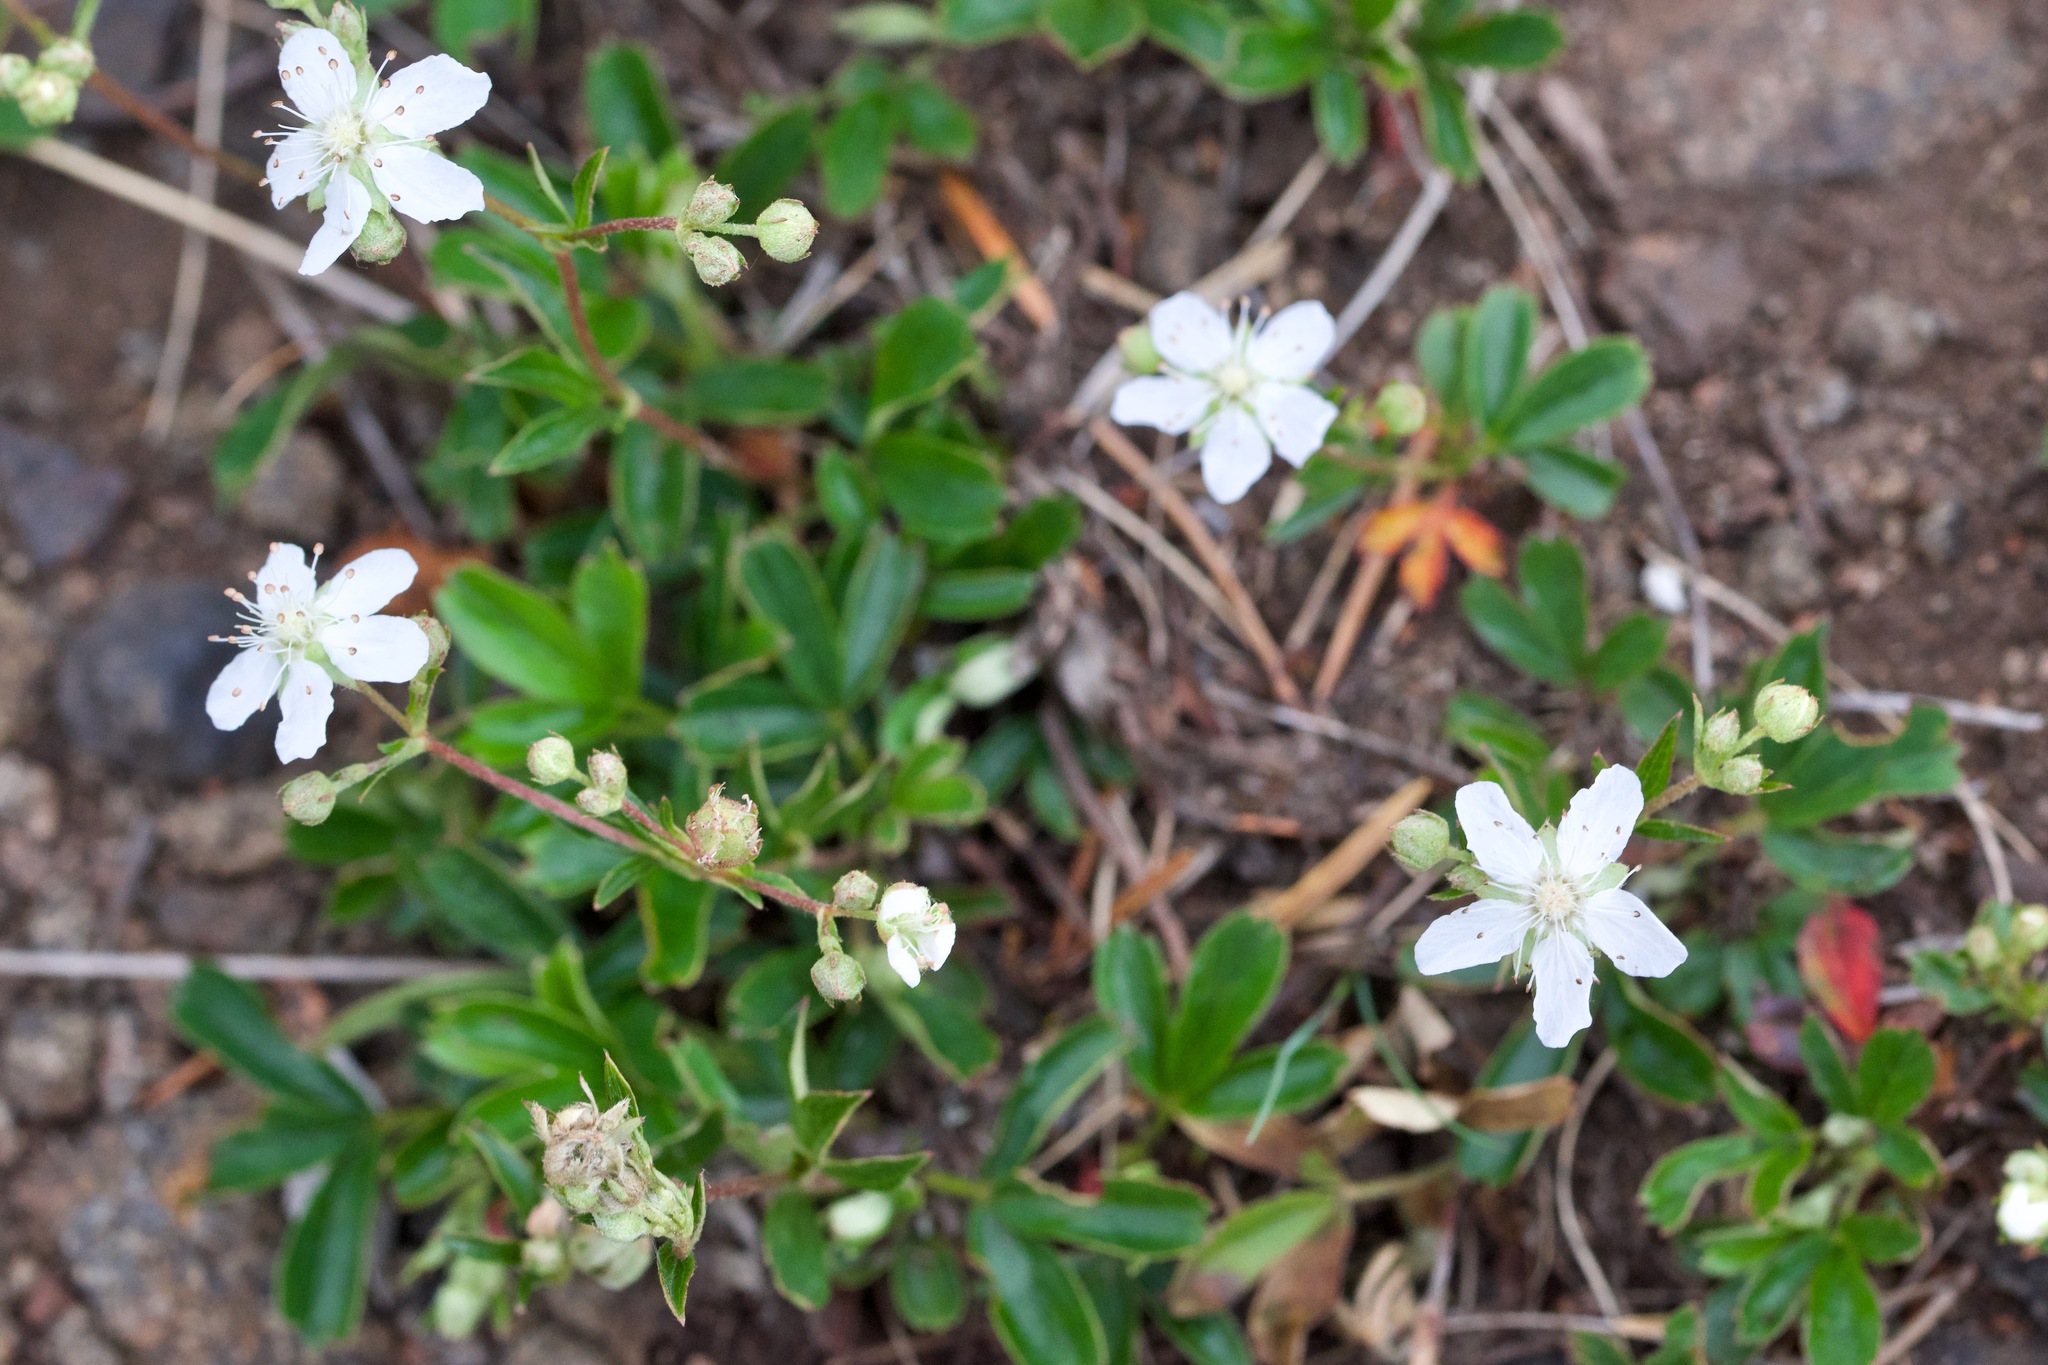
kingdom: Plantae
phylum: Tracheophyta
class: Magnoliopsida
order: Rosales
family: Rosaceae
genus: Sibbaldia
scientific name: Sibbaldia tridentata
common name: Three-toothed cinquefoil
